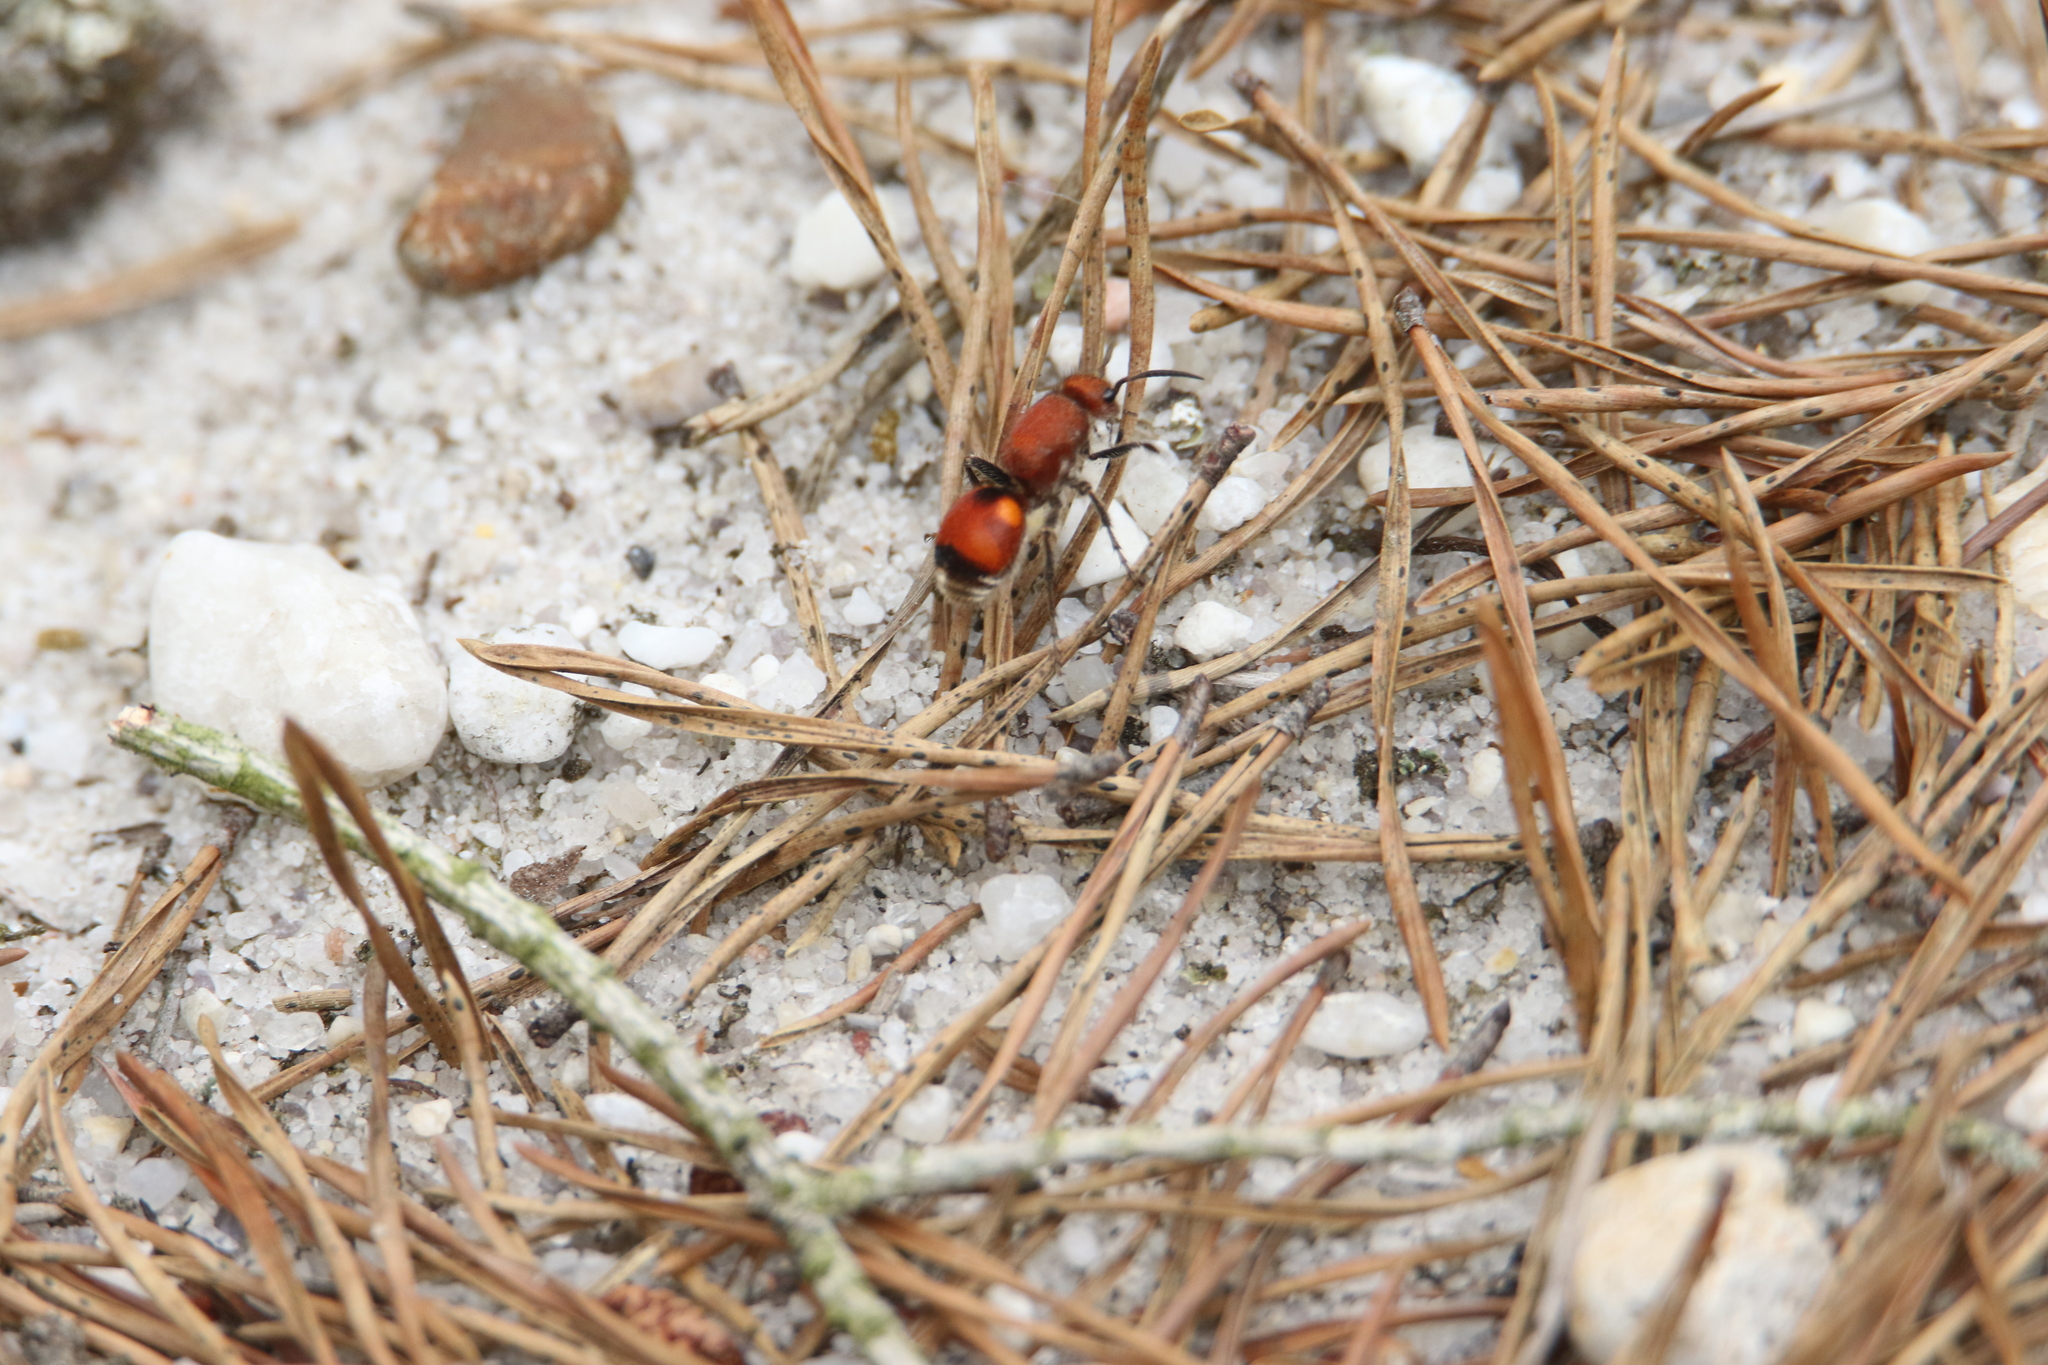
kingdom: Animalia
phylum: Arthropoda
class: Insecta
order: Hymenoptera
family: Mutillidae
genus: Dasymutilla
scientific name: Dasymutilla
